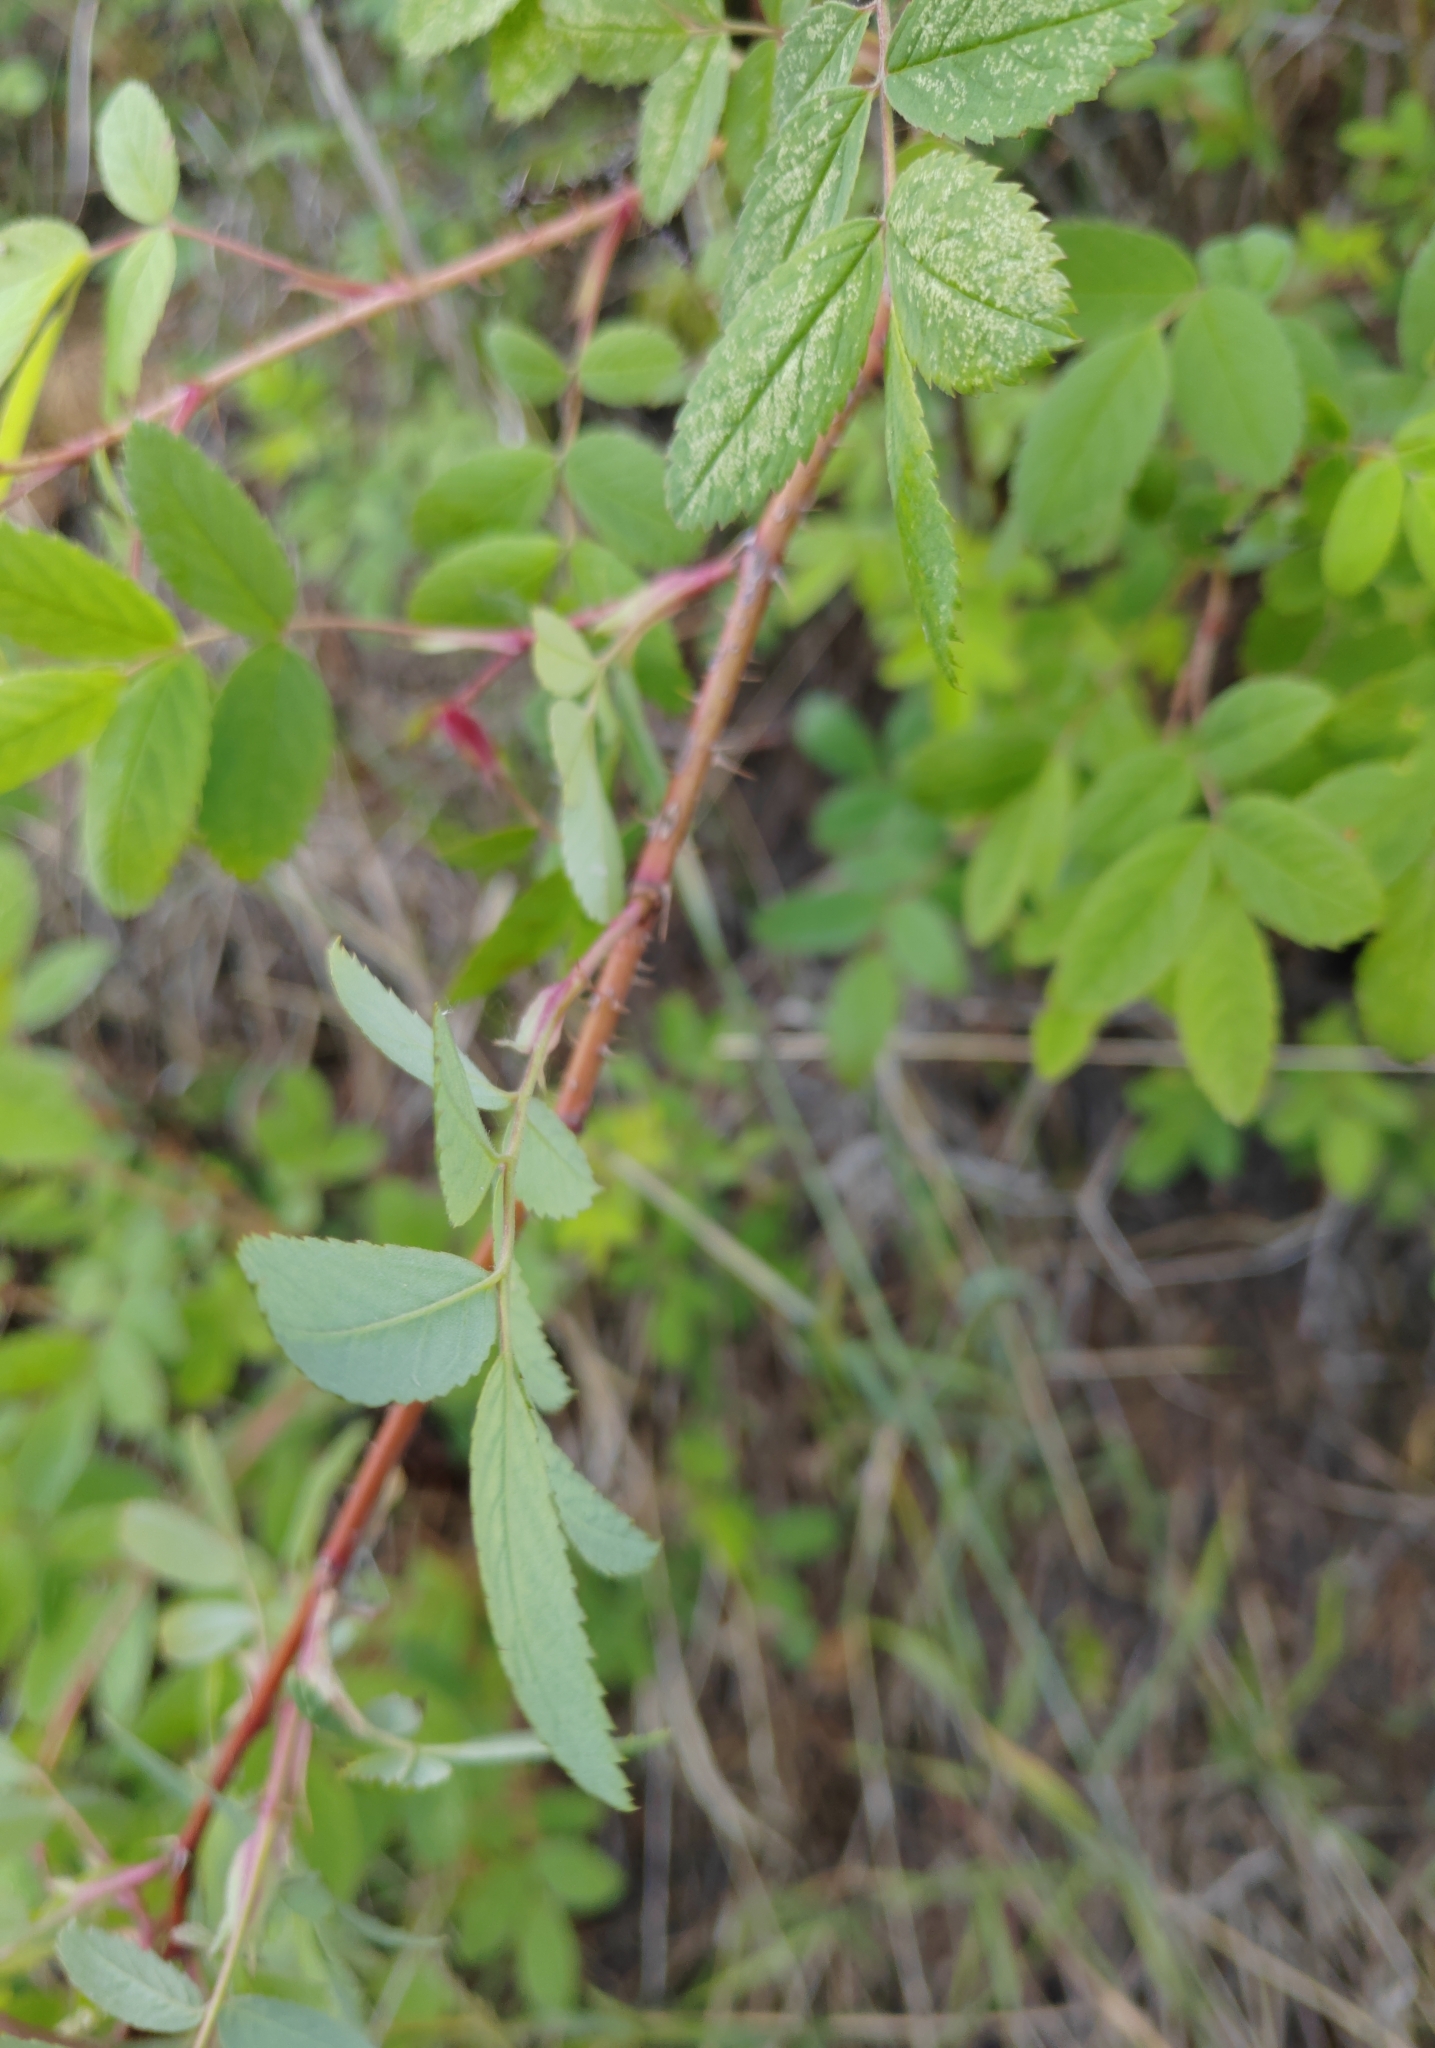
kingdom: Plantae
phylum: Tracheophyta
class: Magnoliopsida
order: Rosales
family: Rosaceae
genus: Rosa
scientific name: Rosa acicularis
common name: Prickly rose
